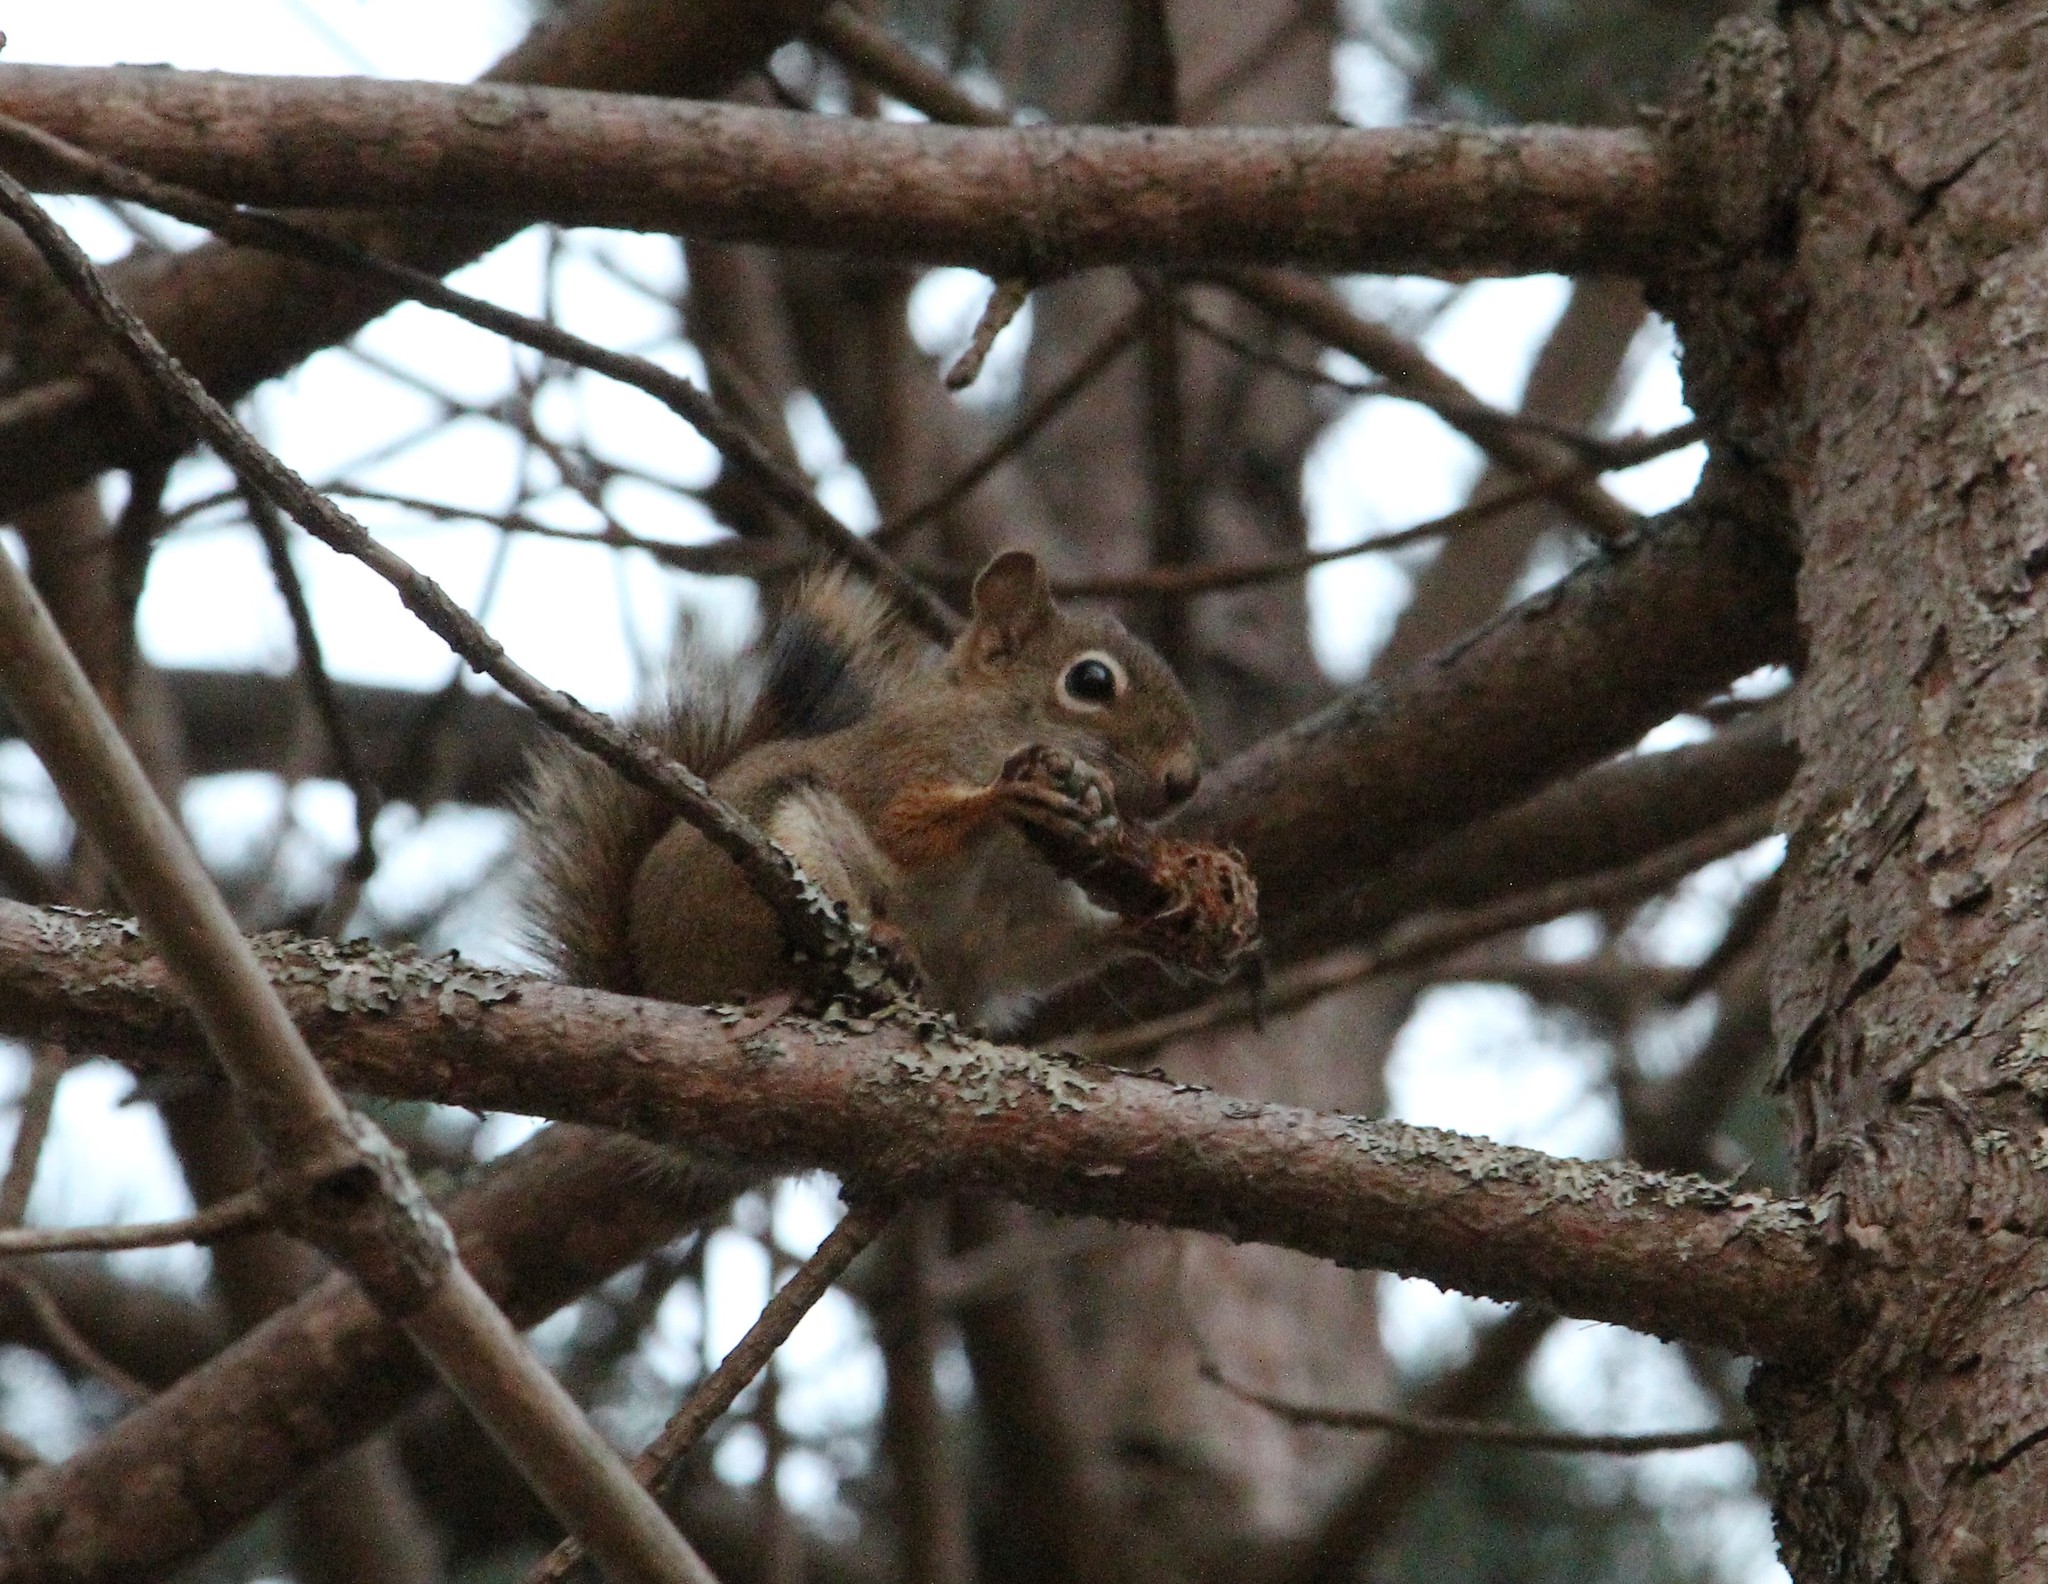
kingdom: Animalia
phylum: Chordata
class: Mammalia
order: Rodentia
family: Sciuridae
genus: Tamiasciurus
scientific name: Tamiasciurus hudsonicus
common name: Red squirrel
